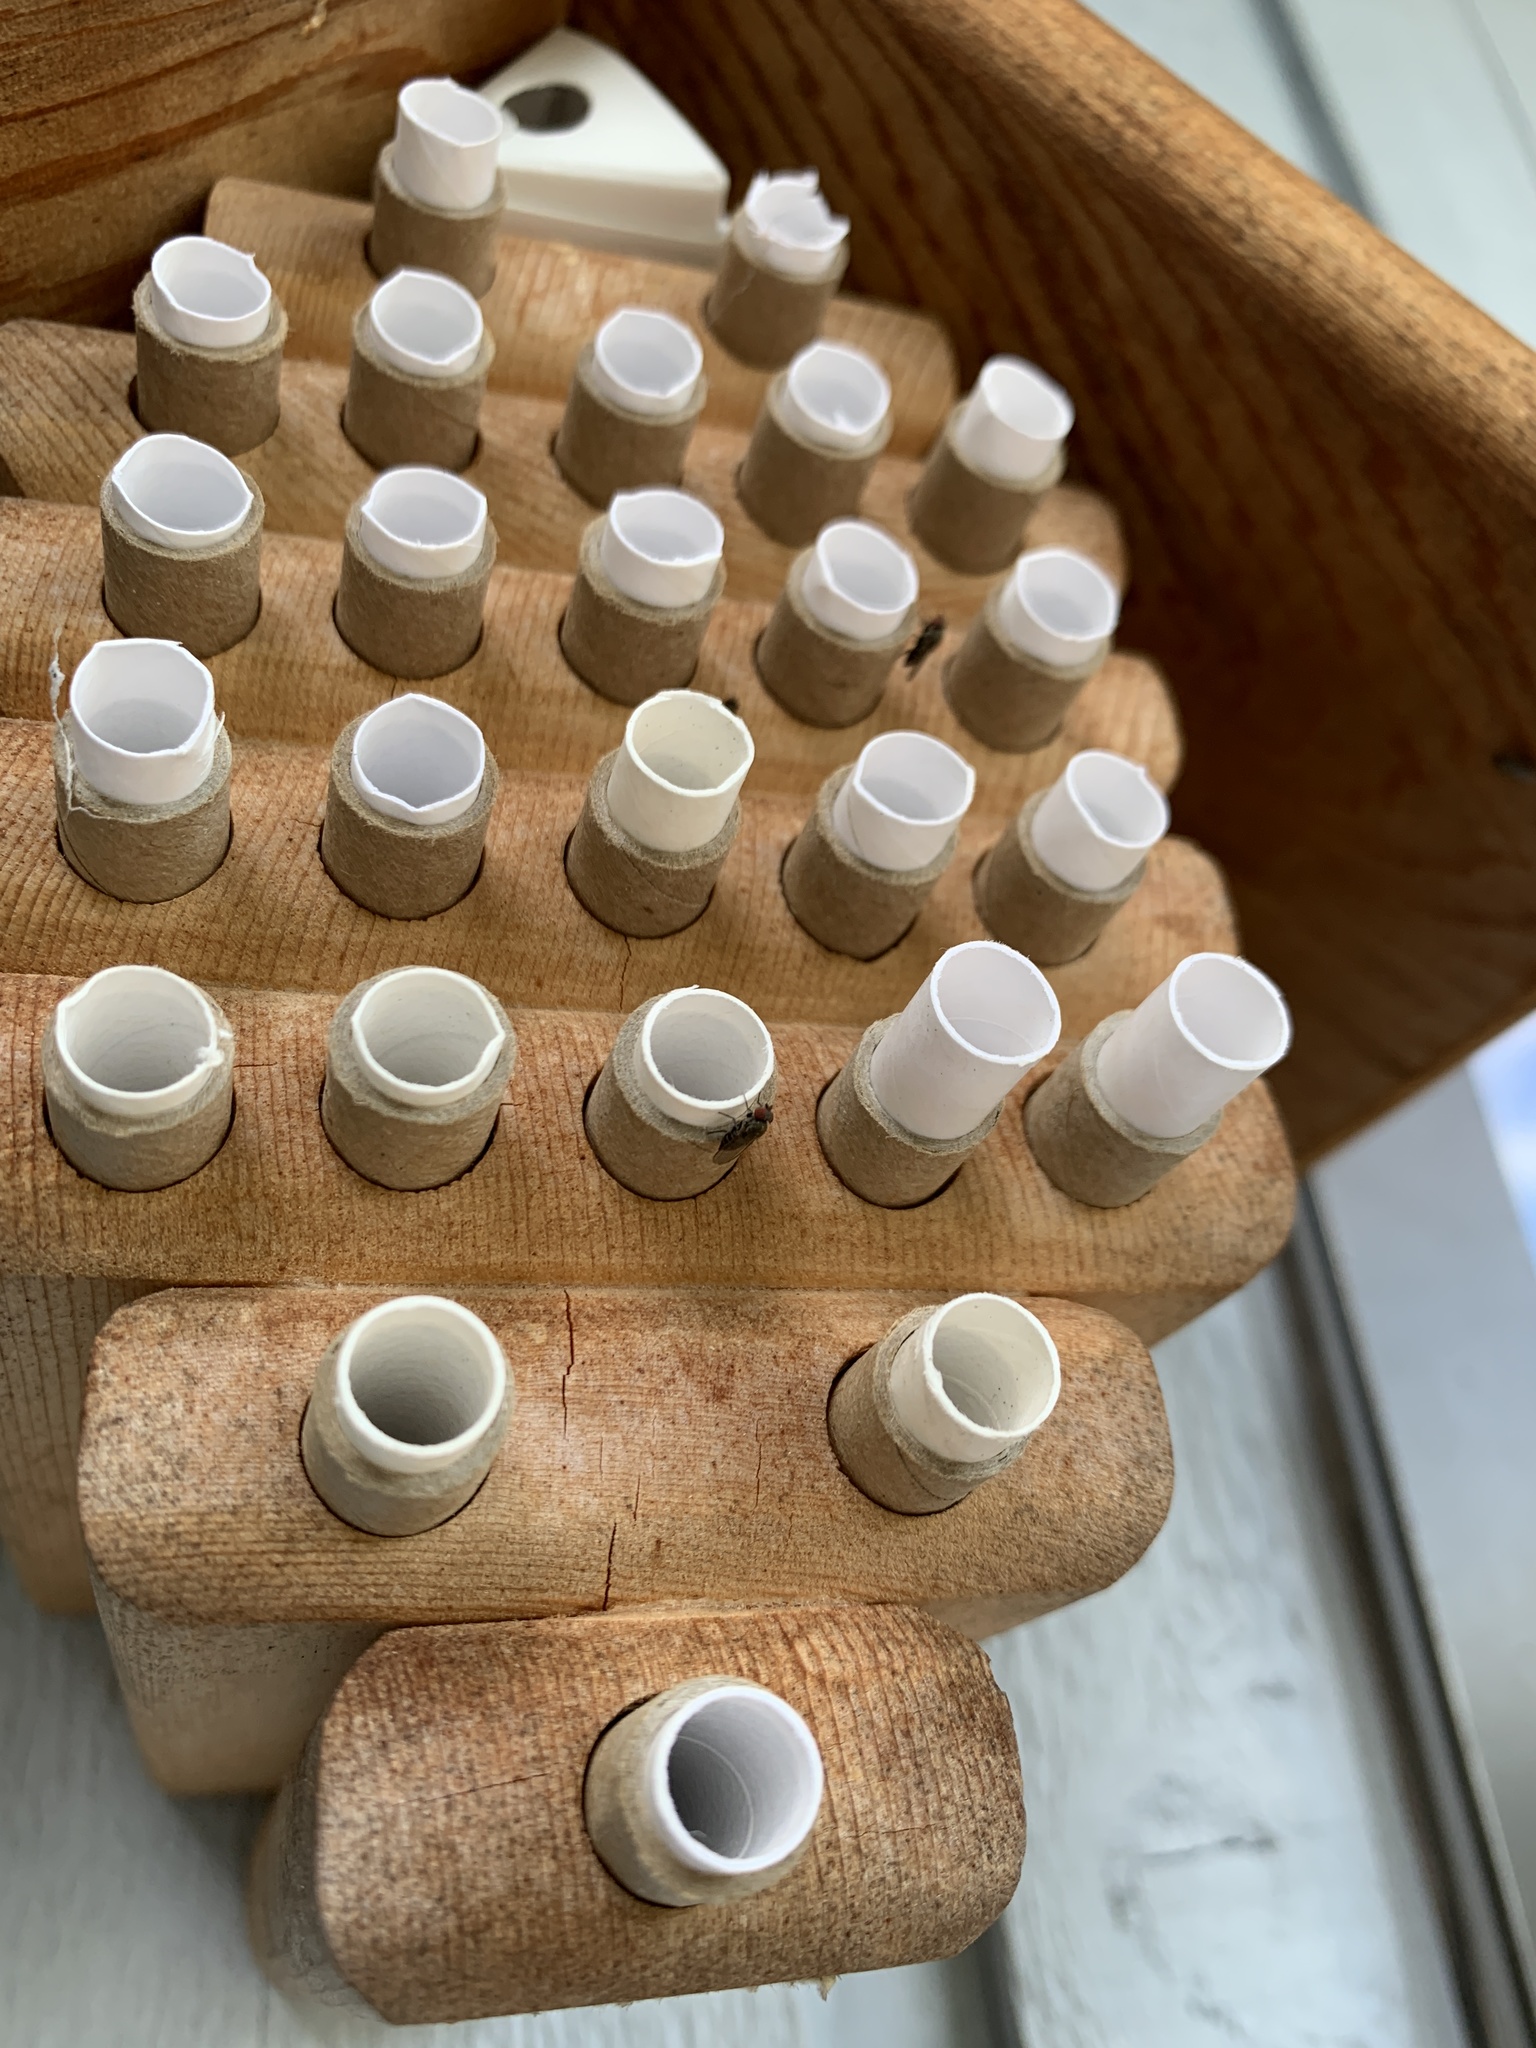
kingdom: Animalia
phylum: Arthropoda
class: Insecta
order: Diptera
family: Drosophilidae
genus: Cacoxenus
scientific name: Cacoxenus indagator
